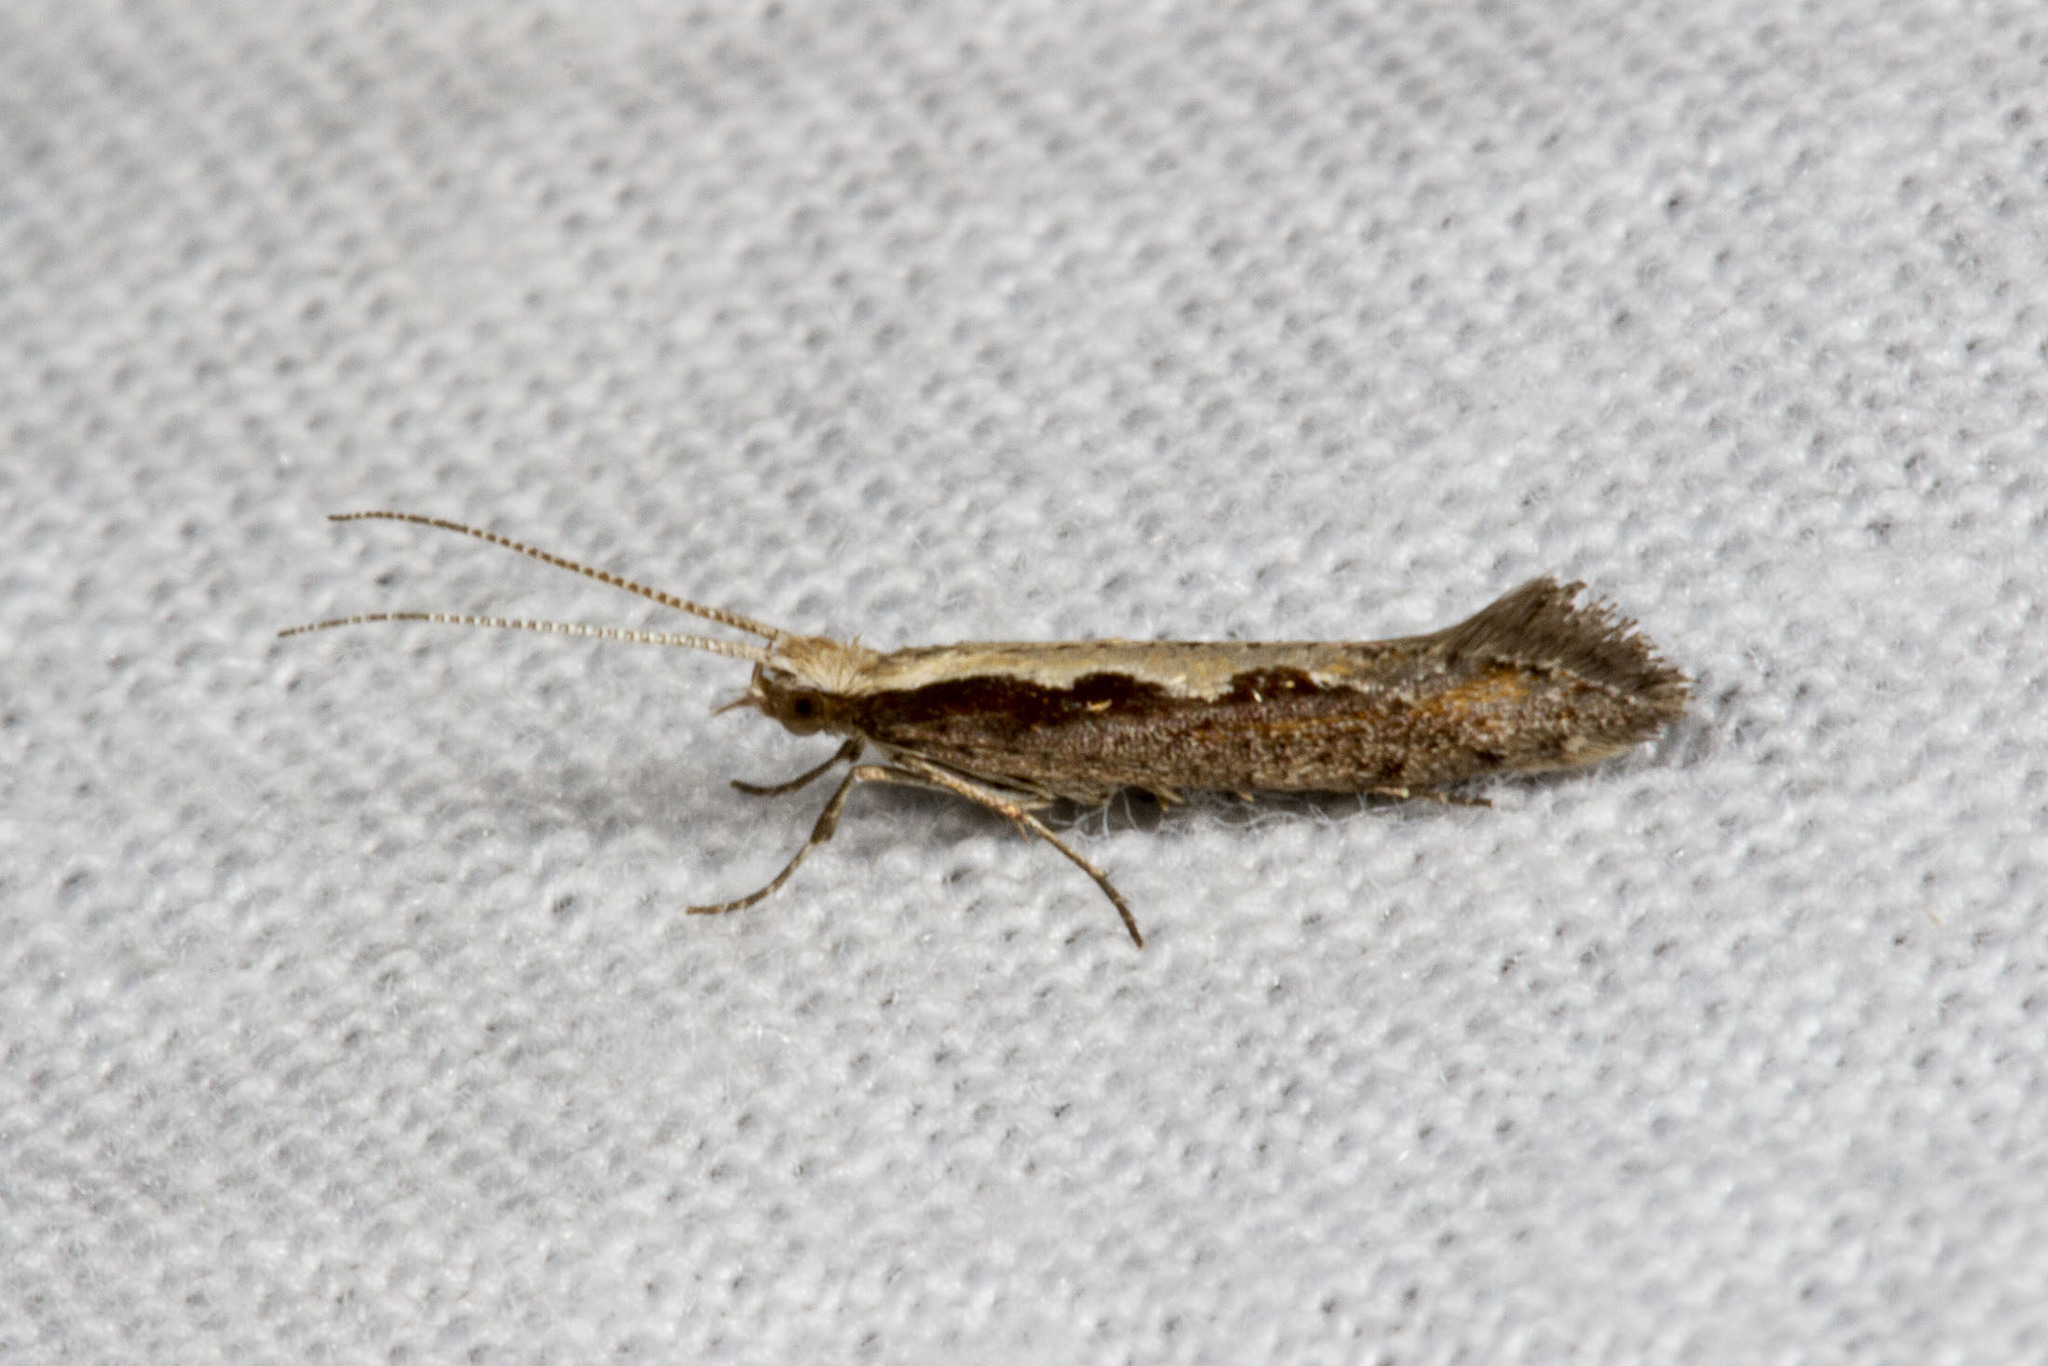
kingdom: Animalia
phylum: Arthropoda
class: Insecta
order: Lepidoptera
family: Plutellidae
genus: Plutella
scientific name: Plutella xylostella
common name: Diamond-back moth
